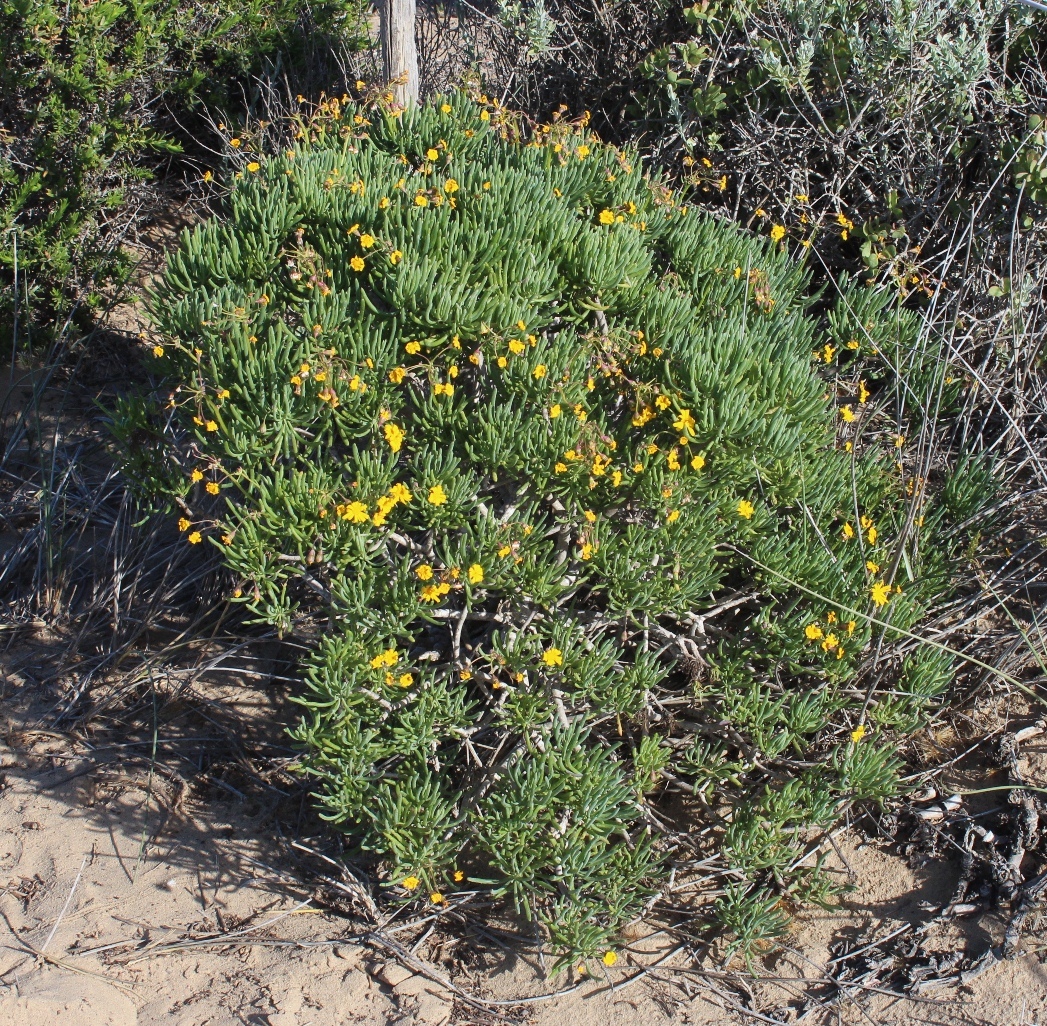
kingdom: Plantae
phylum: Tracheophyta
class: Magnoliopsida
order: Asterales
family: Asteraceae
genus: Crassothonna
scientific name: Crassothonna cylindrica
